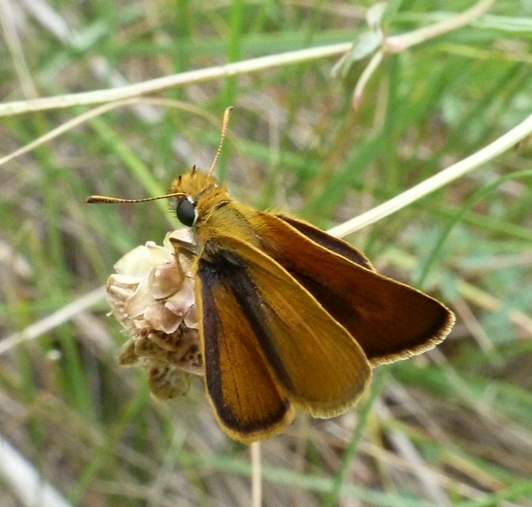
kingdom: Animalia
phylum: Arthropoda
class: Insecta
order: Lepidoptera
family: Hesperiidae
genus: Thymelicus
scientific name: Thymelicus acteon
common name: Lulworth skipper
